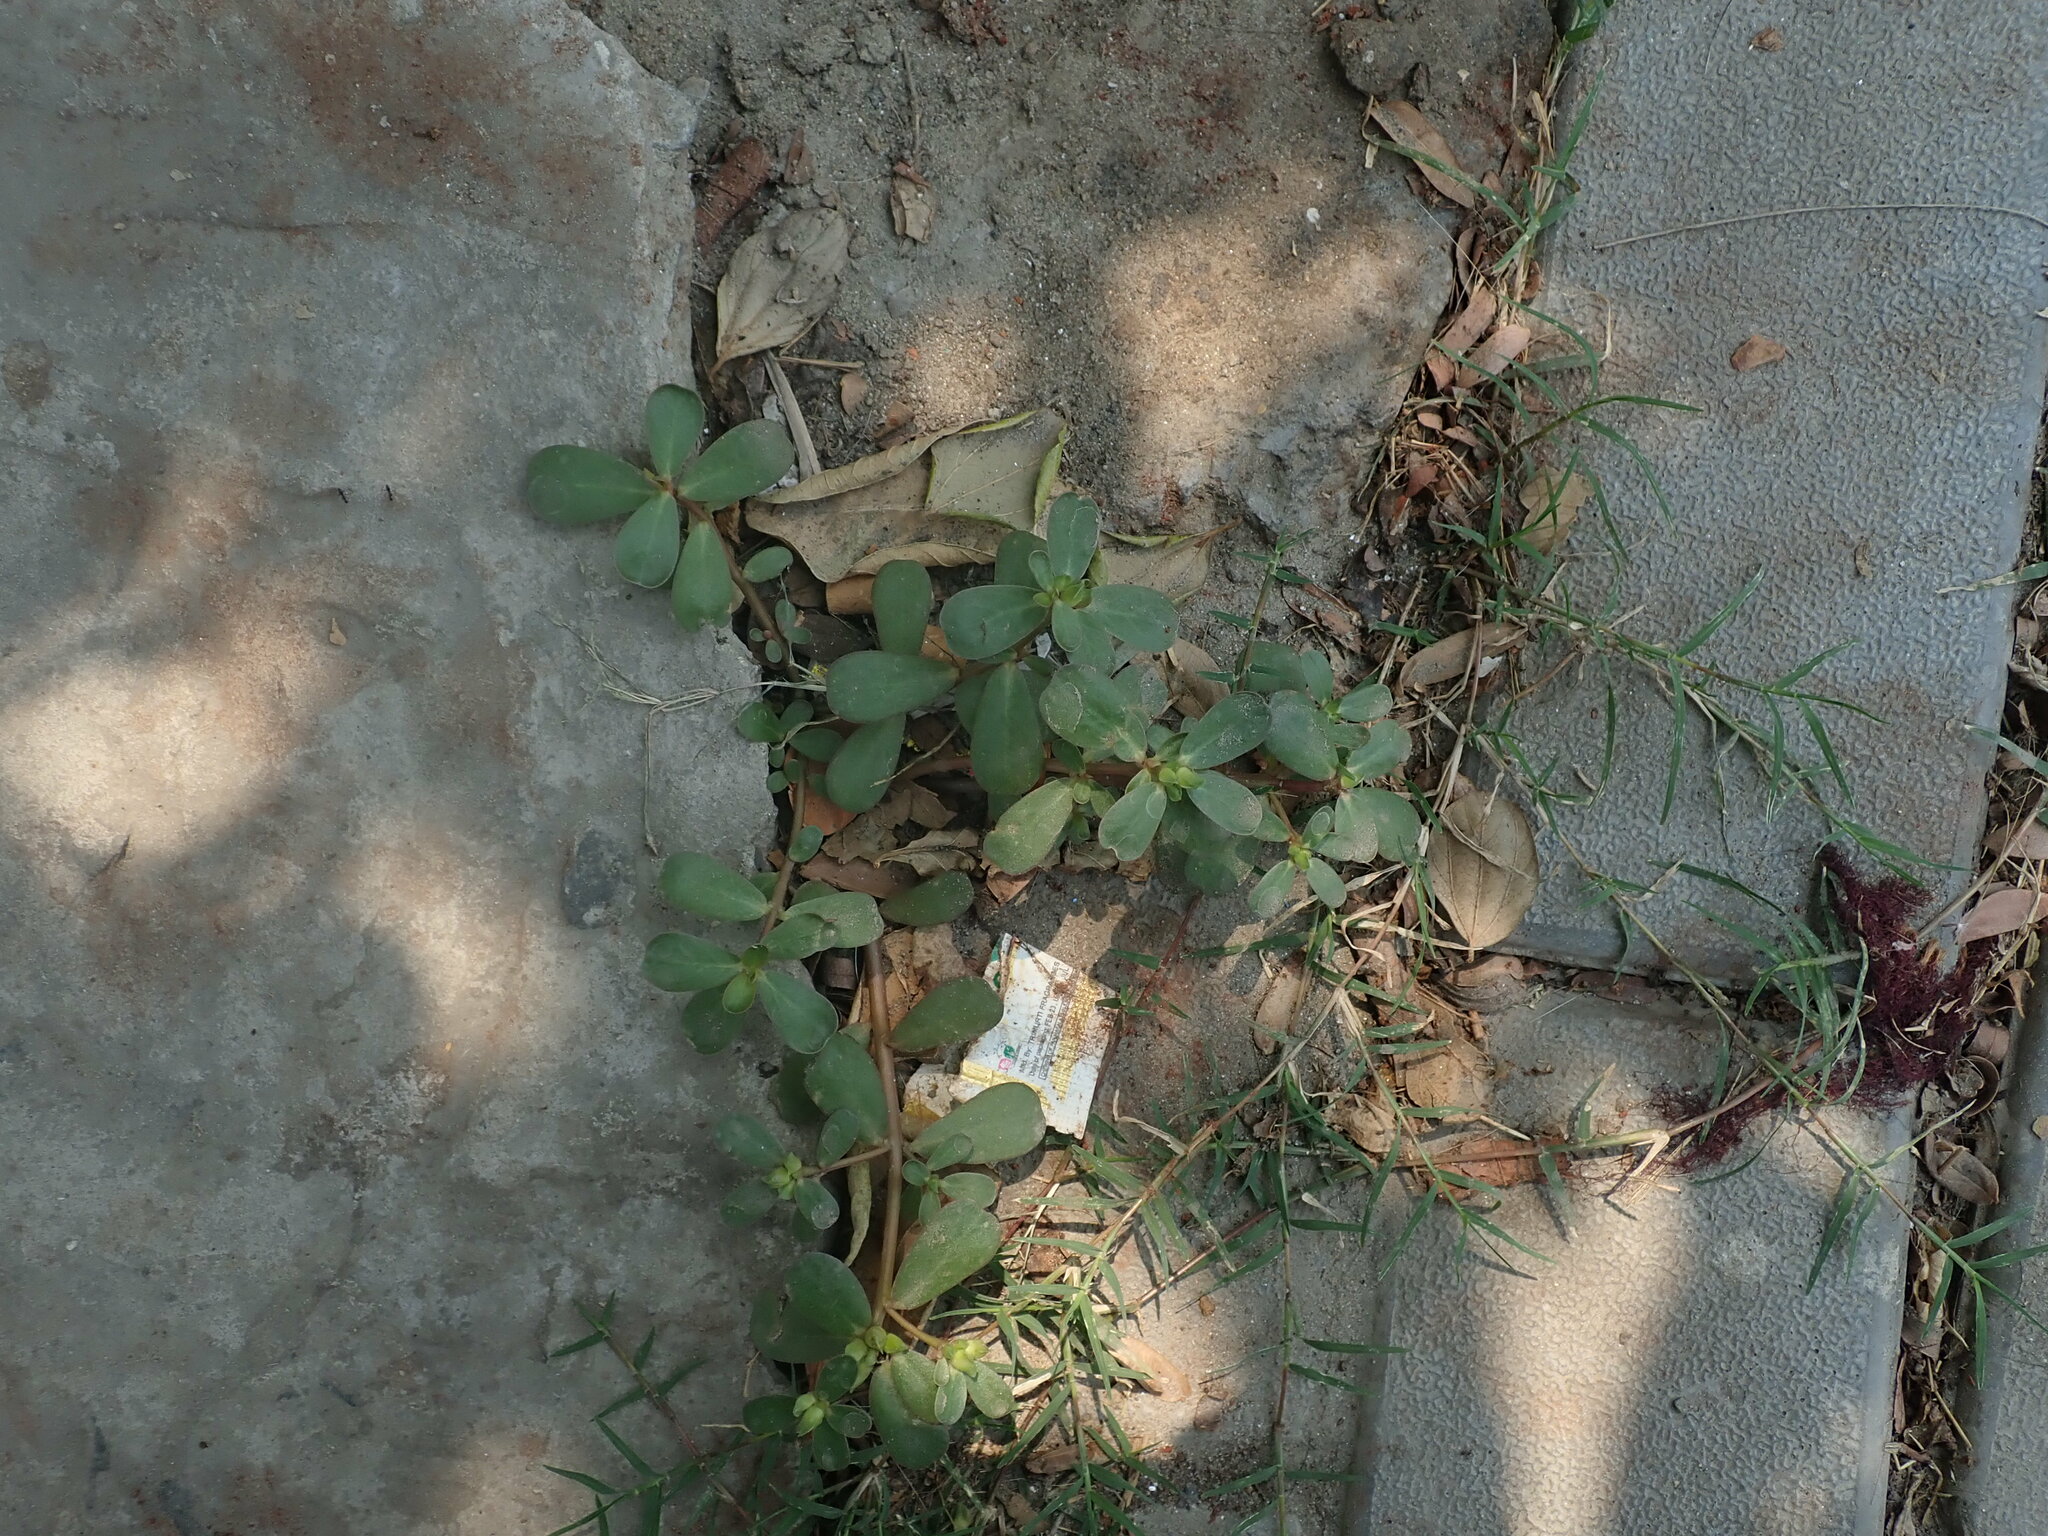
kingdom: Plantae
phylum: Tracheophyta
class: Magnoliopsida
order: Caryophyllales
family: Portulacaceae
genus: Portulaca
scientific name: Portulaca oleracea
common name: Common purslane
